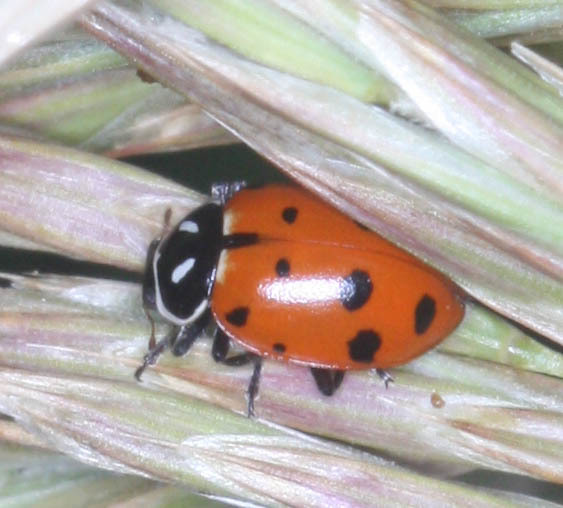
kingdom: Animalia
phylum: Arthropoda
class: Insecta
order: Coleoptera
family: Coccinellidae
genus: Hippodamia
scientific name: Hippodamia convergens
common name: Convergent lady beetle
